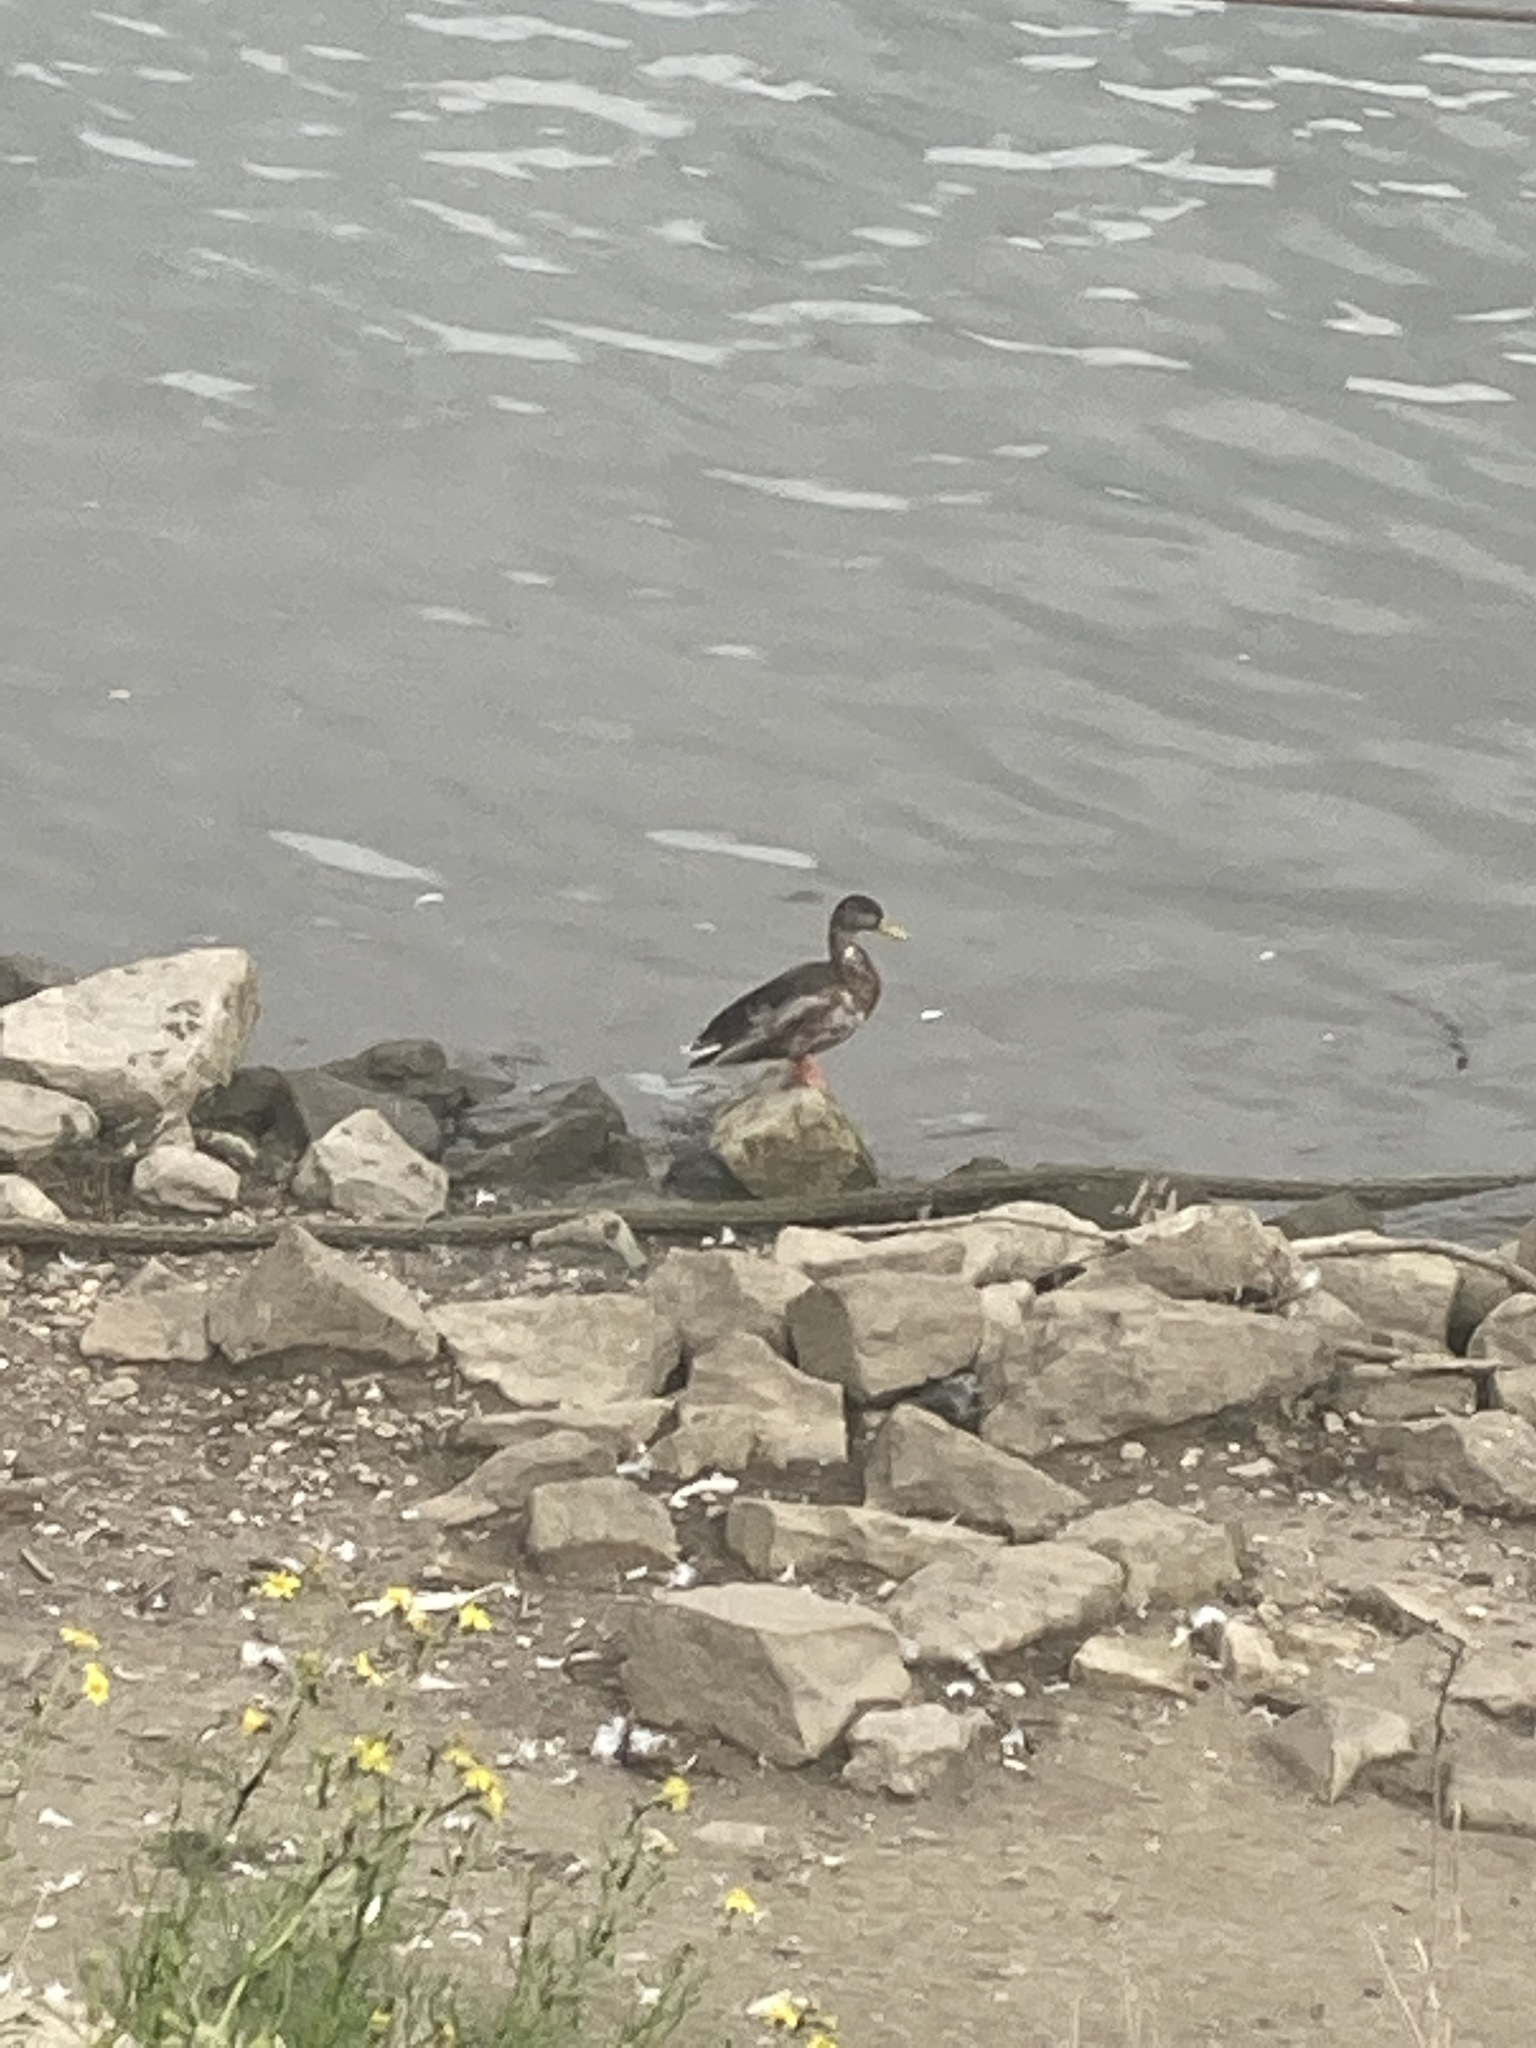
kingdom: Animalia
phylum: Chordata
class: Aves
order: Anseriformes
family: Anatidae
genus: Anas
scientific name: Anas platyrhynchos
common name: Mallard
